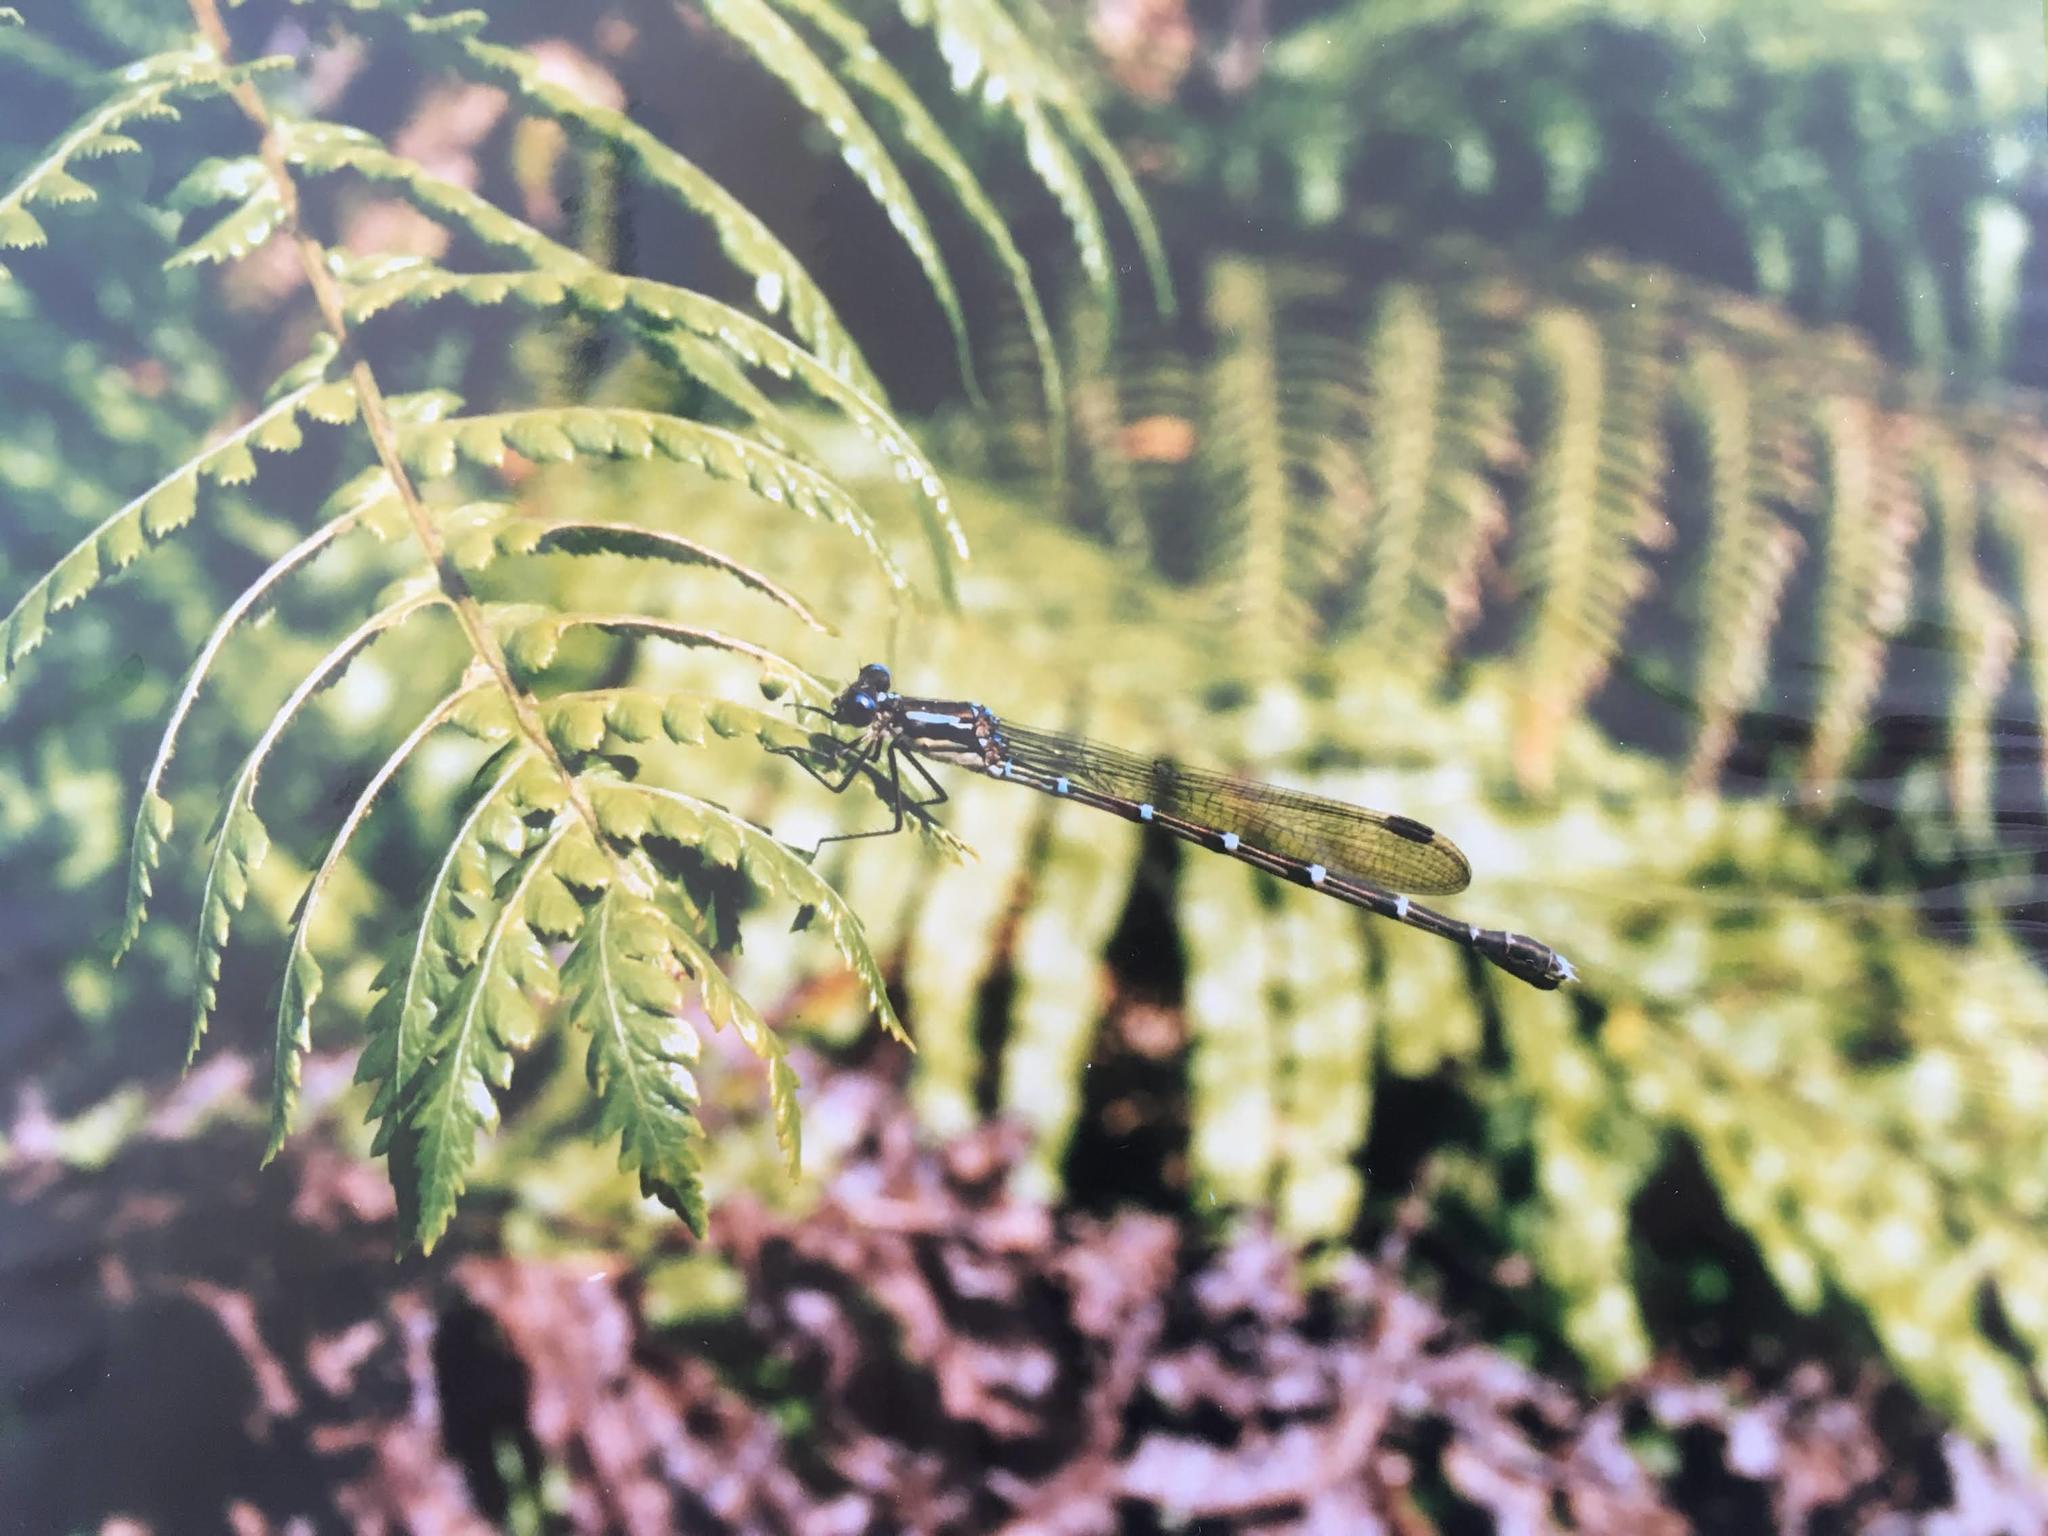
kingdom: Animalia
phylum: Arthropoda
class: Insecta
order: Odonata
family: Lestidae
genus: Austrolestes
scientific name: Austrolestes colensonis
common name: Blue damselfly
